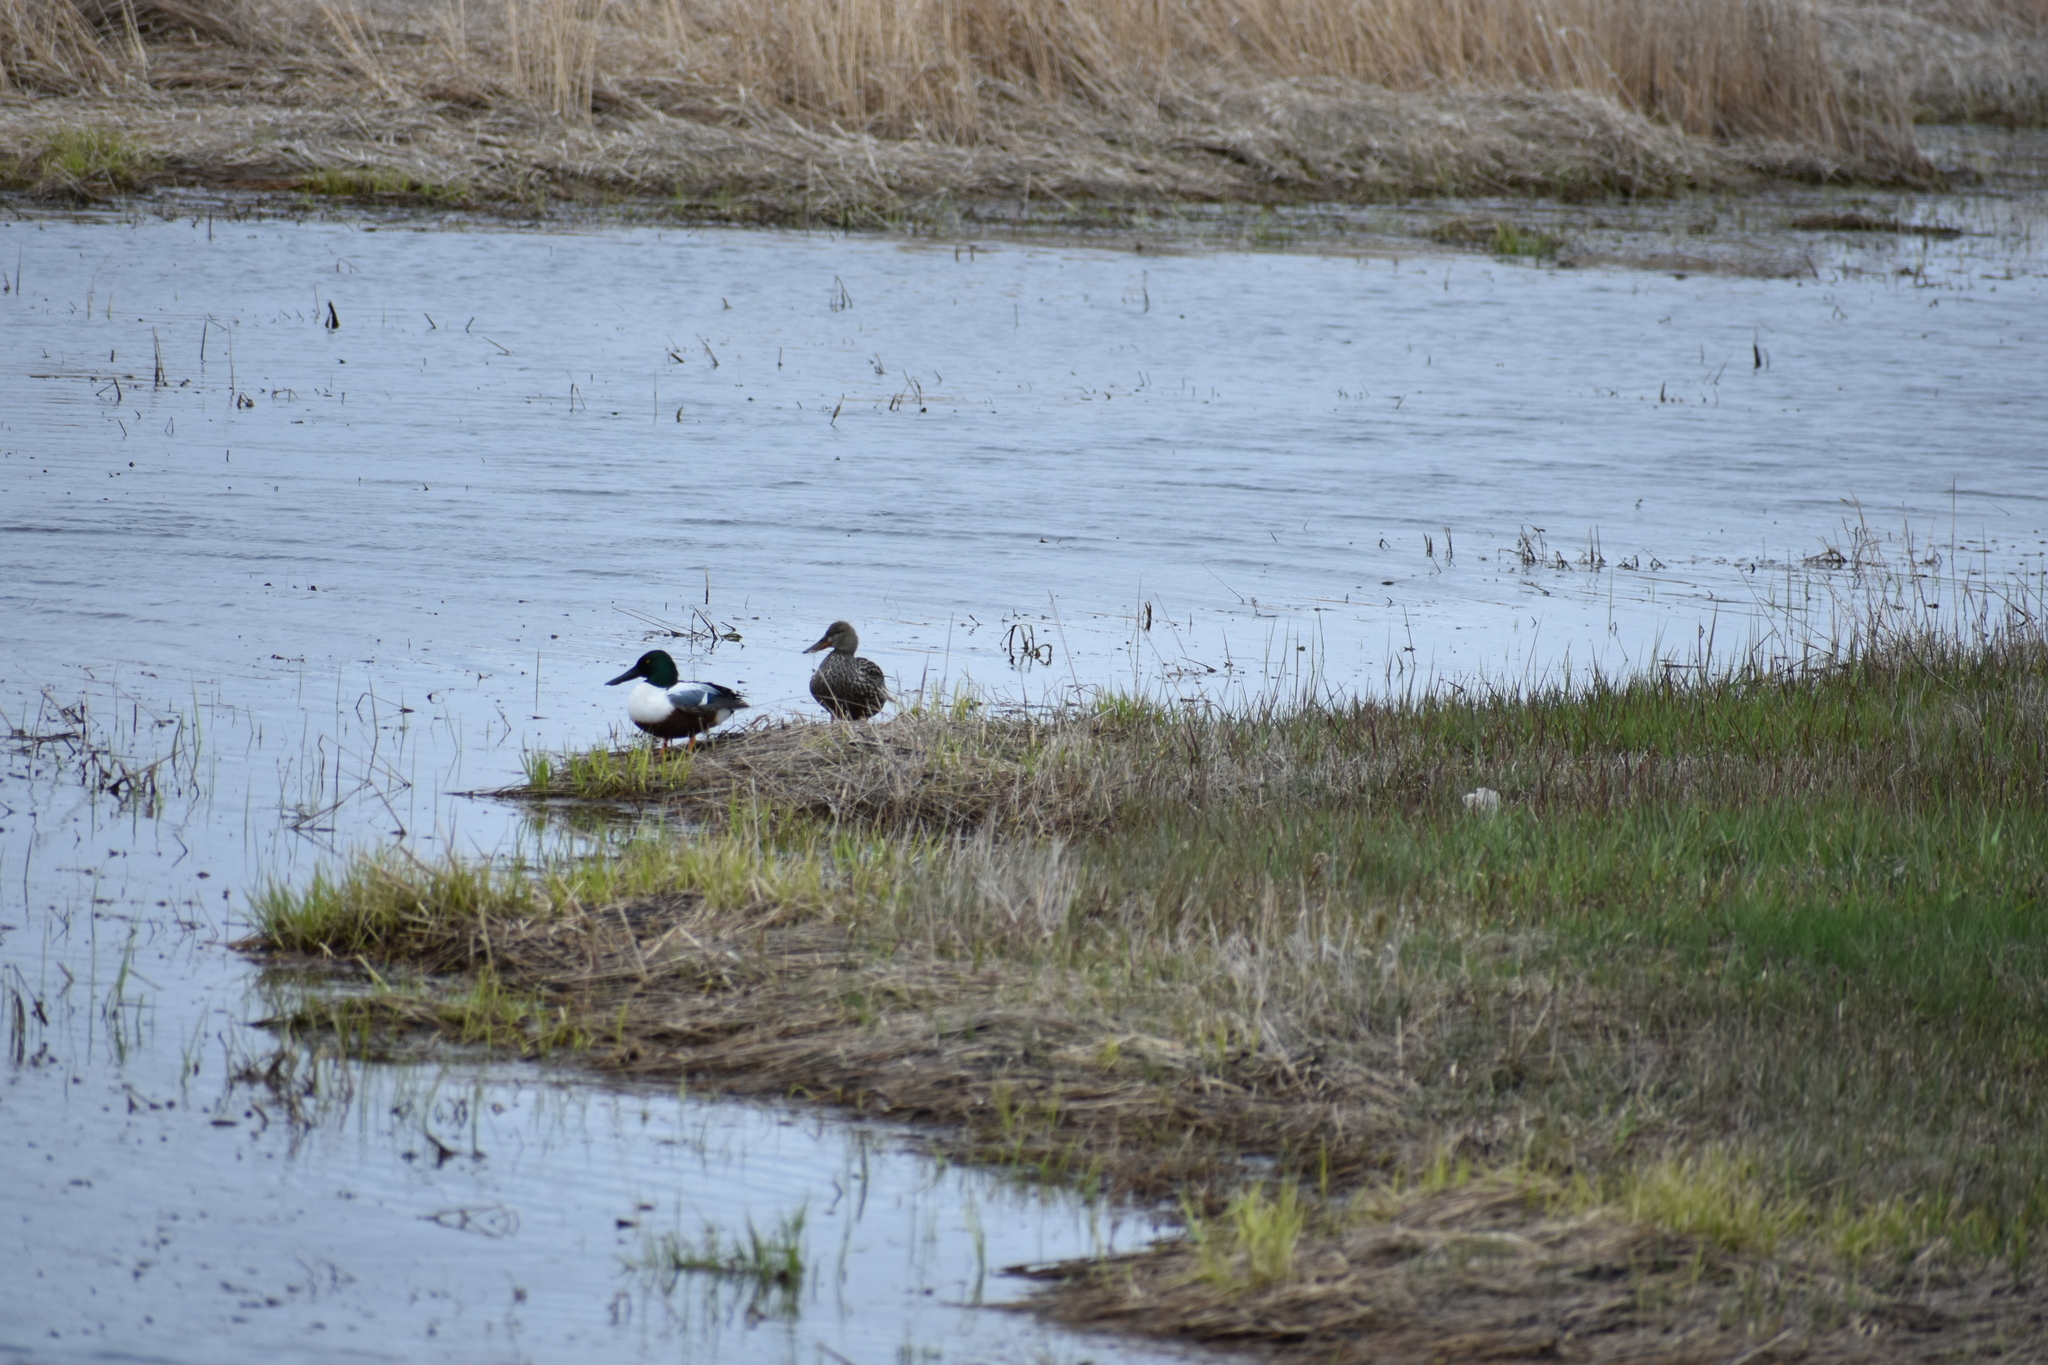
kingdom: Animalia
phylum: Chordata
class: Aves
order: Anseriformes
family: Anatidae
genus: Spatula
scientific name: Spatula clypeata
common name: Northern shoveler
